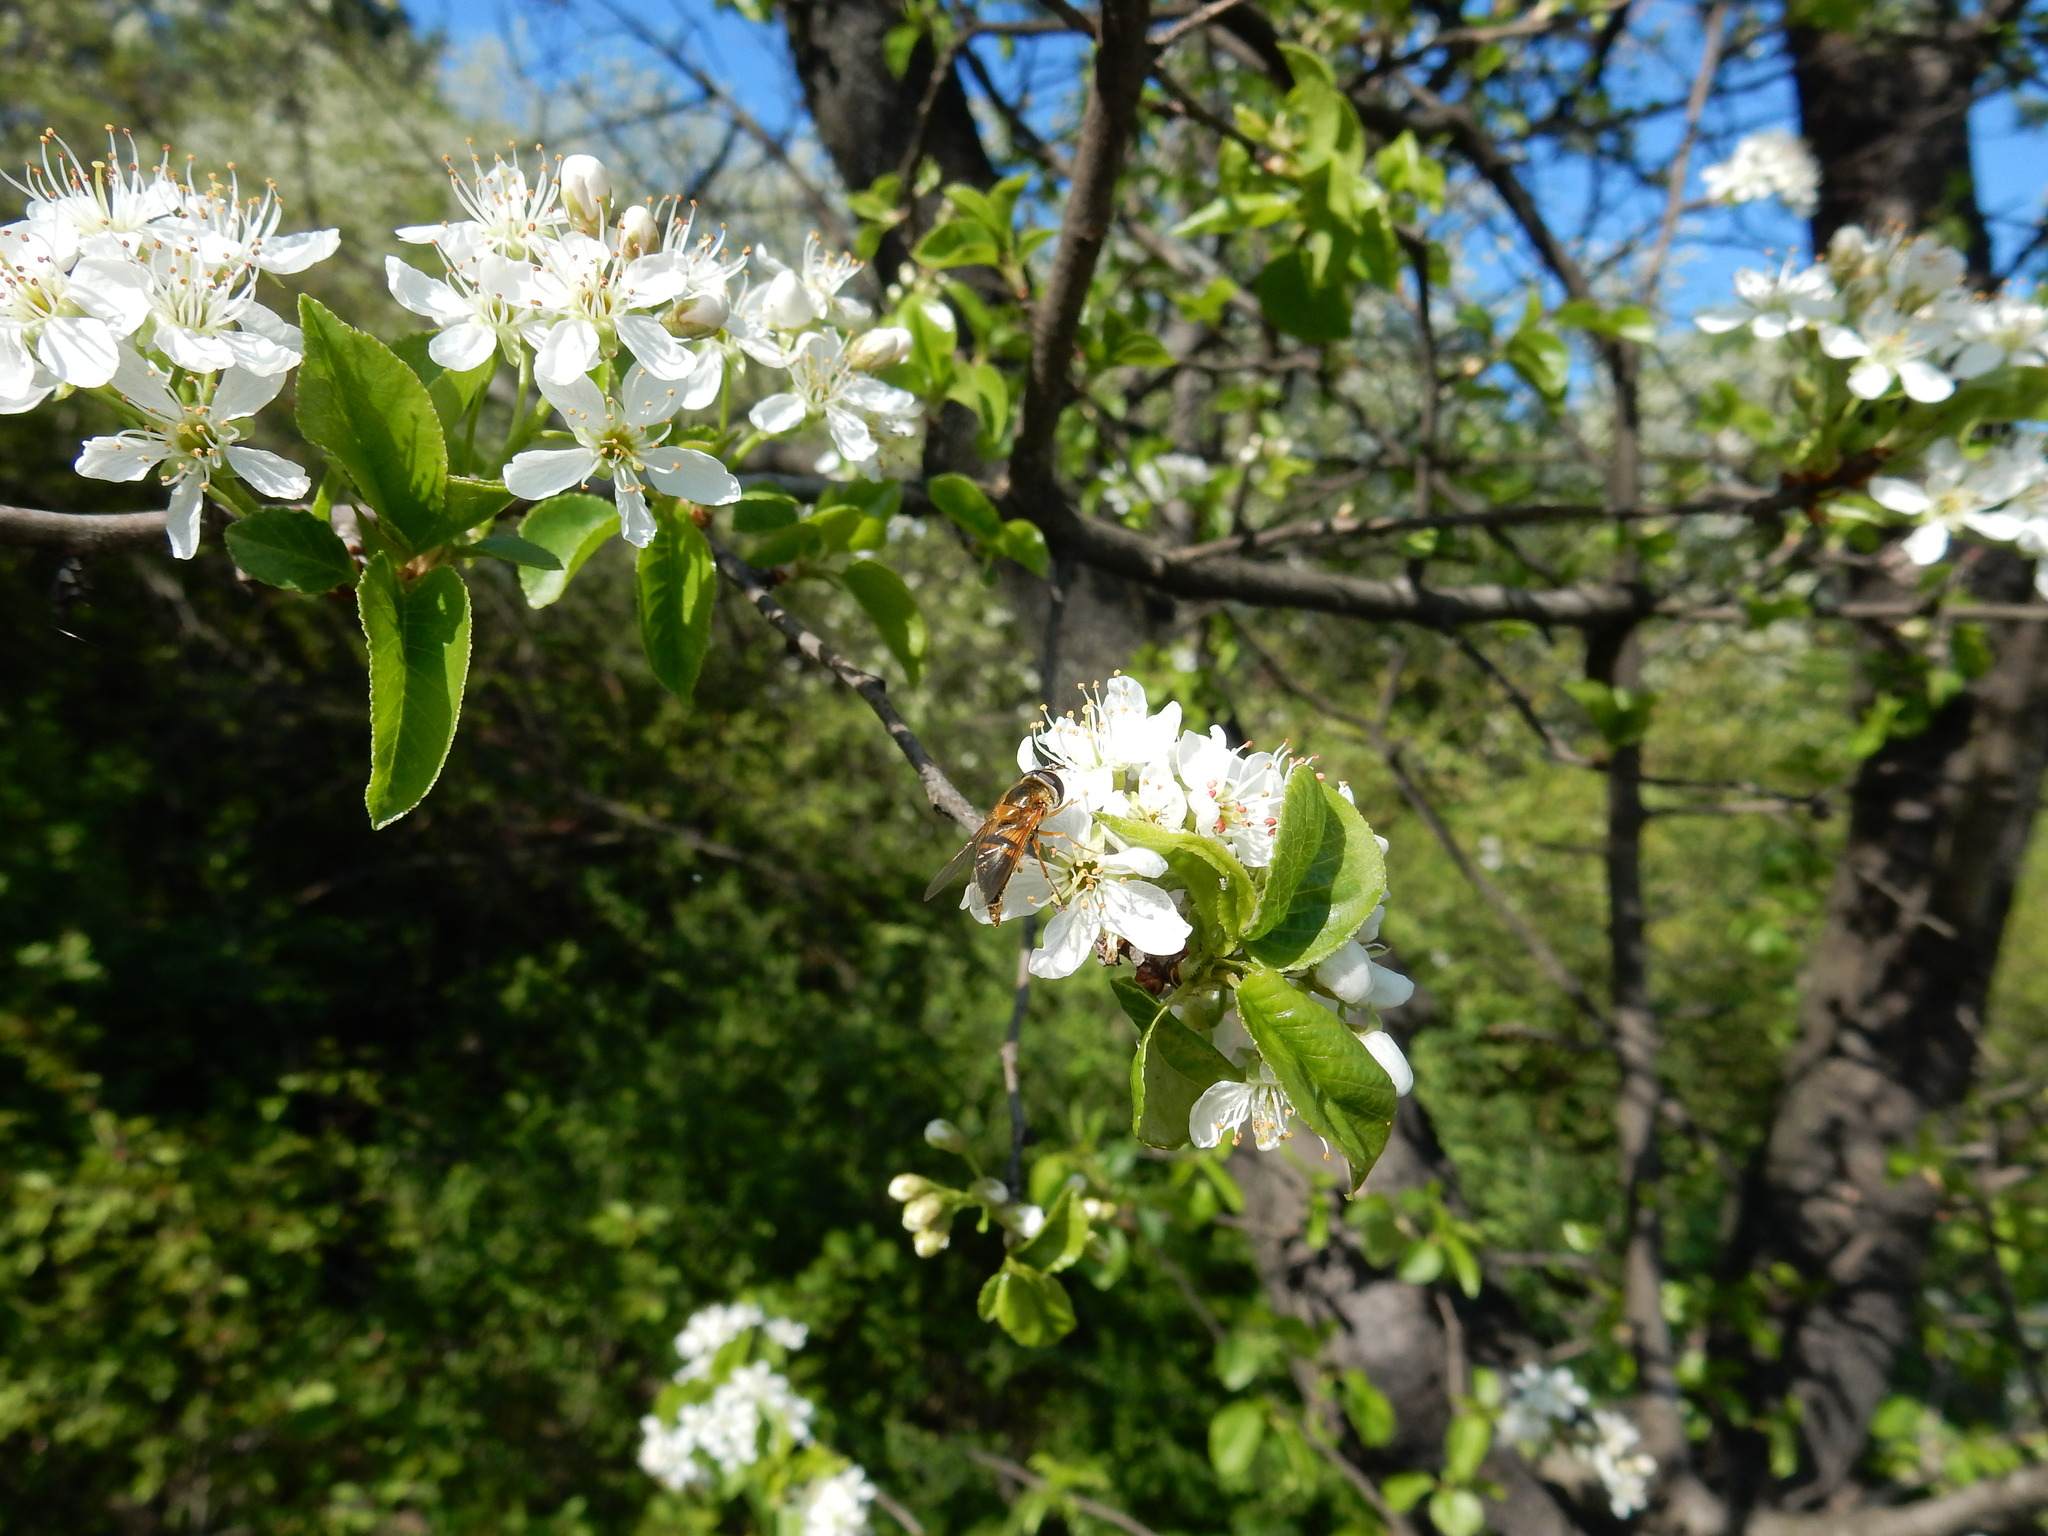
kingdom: Animalia
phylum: Arthropoda
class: Insecta
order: Diptera
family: Syrphidae
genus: Epistrophe
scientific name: Epistrophe eligans
